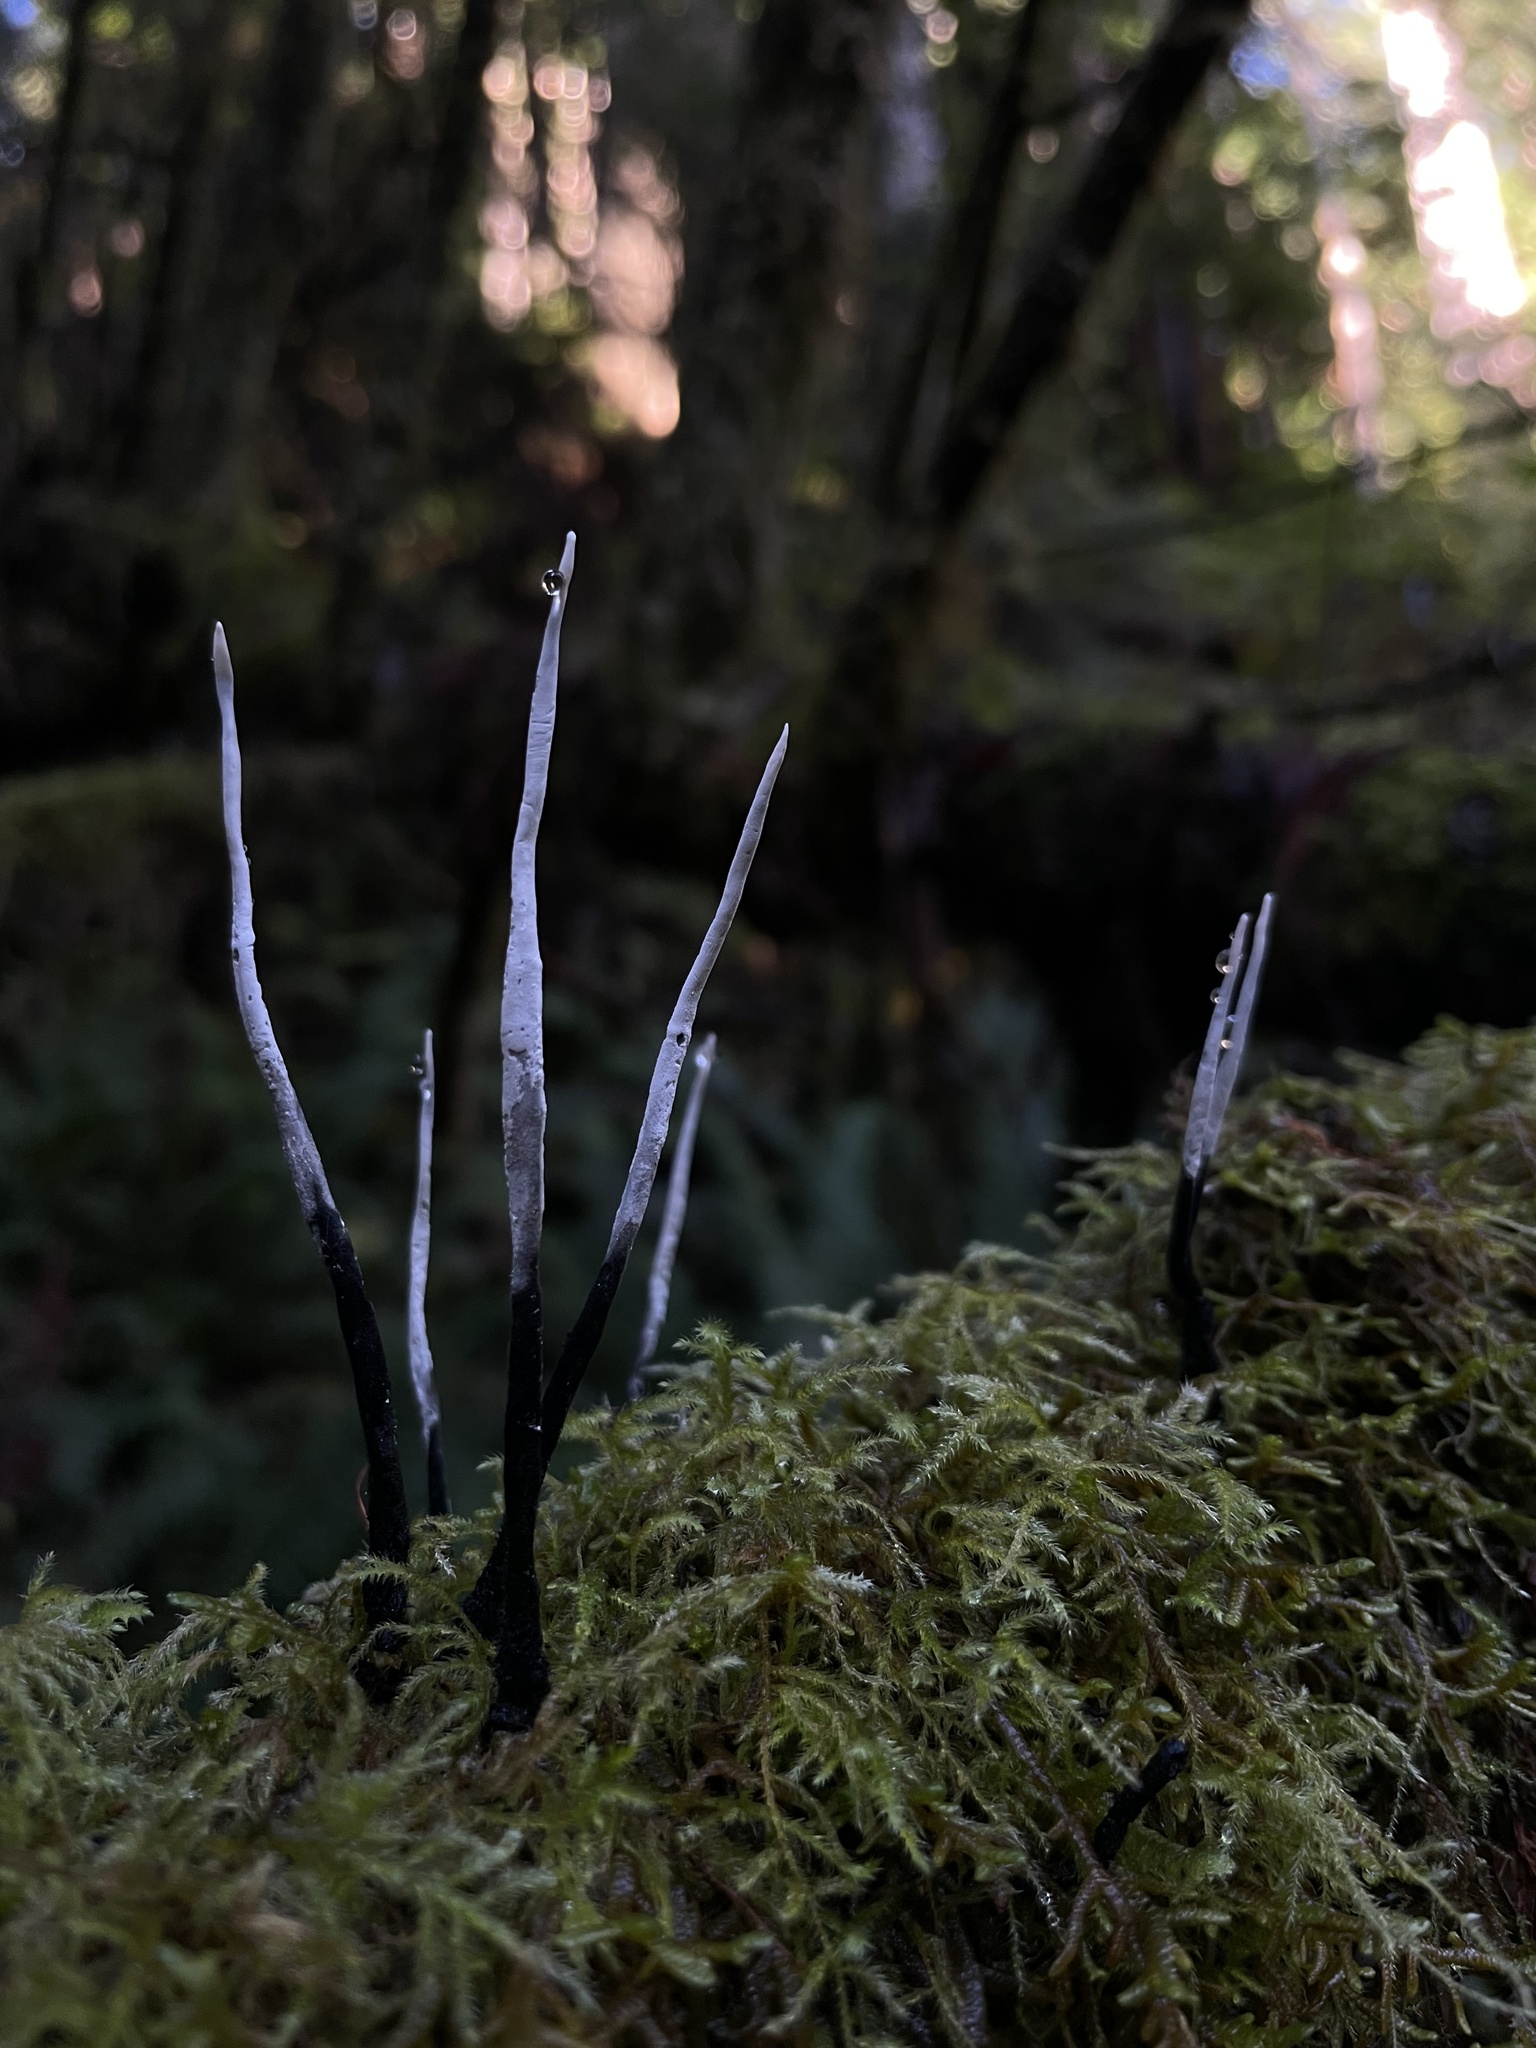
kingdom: Fungi
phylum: Ascomycota
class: Sordariomycetes
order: Xylariales
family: Xylariaceae
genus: Xylaria
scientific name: Xylaria hypoxylon
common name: Candle-snuff fungus
